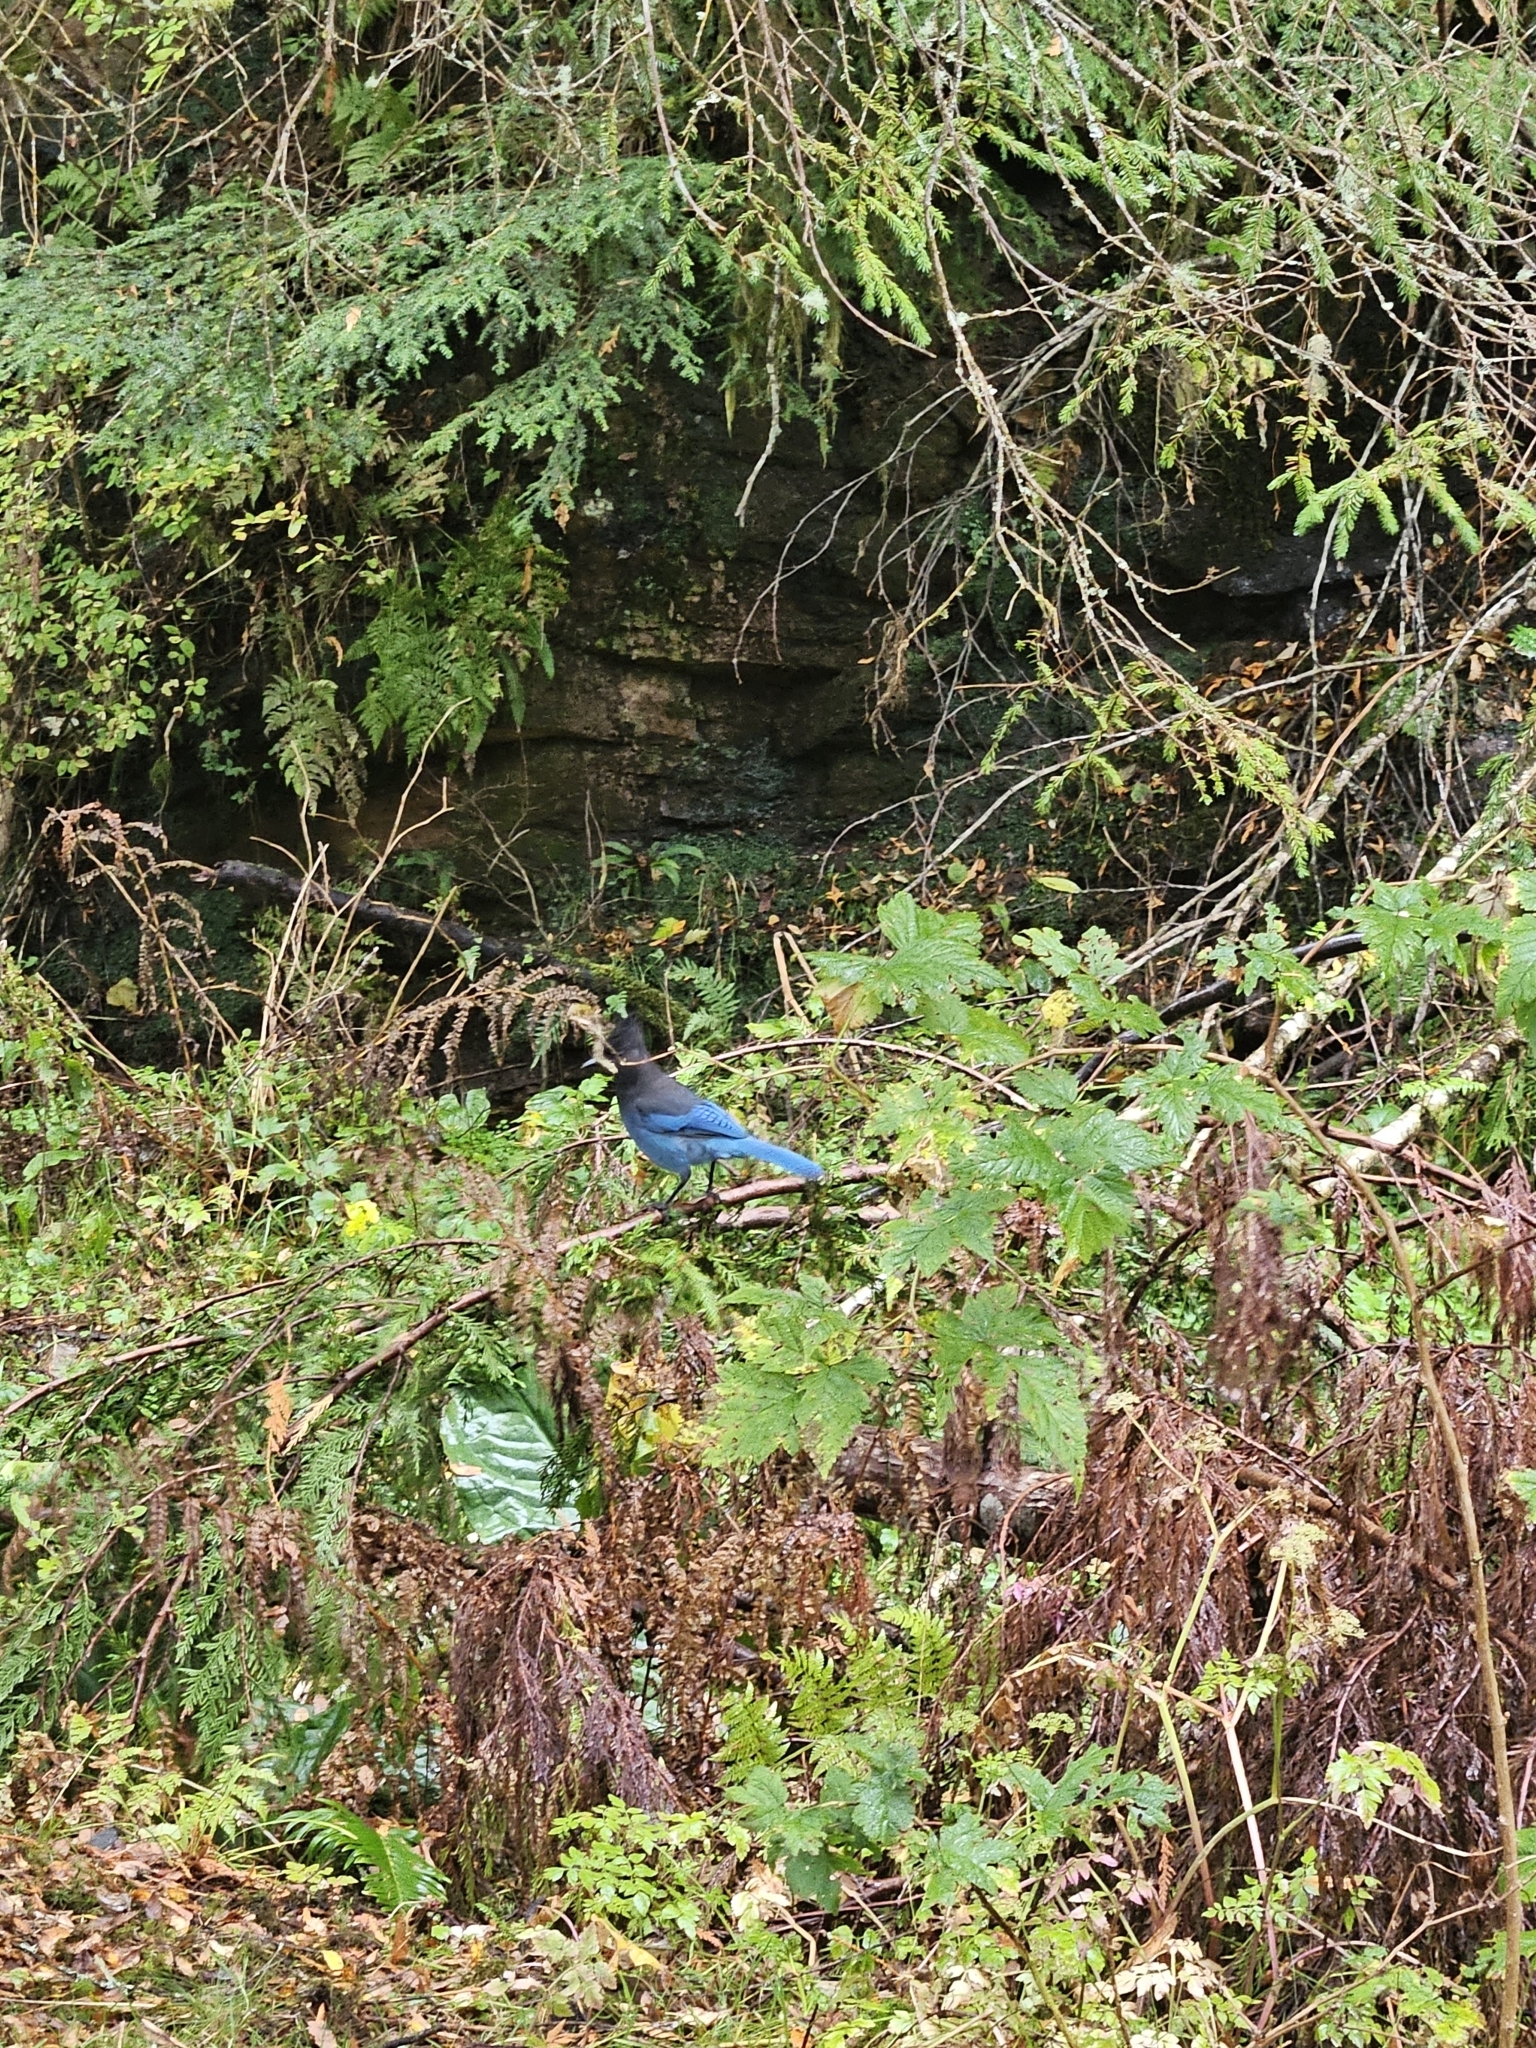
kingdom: Animalia
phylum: Chordata
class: Aves
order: Passeriformes
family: Corvidae
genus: Cyanocitta
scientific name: Cyanocitta stelleri
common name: Steller's jay
